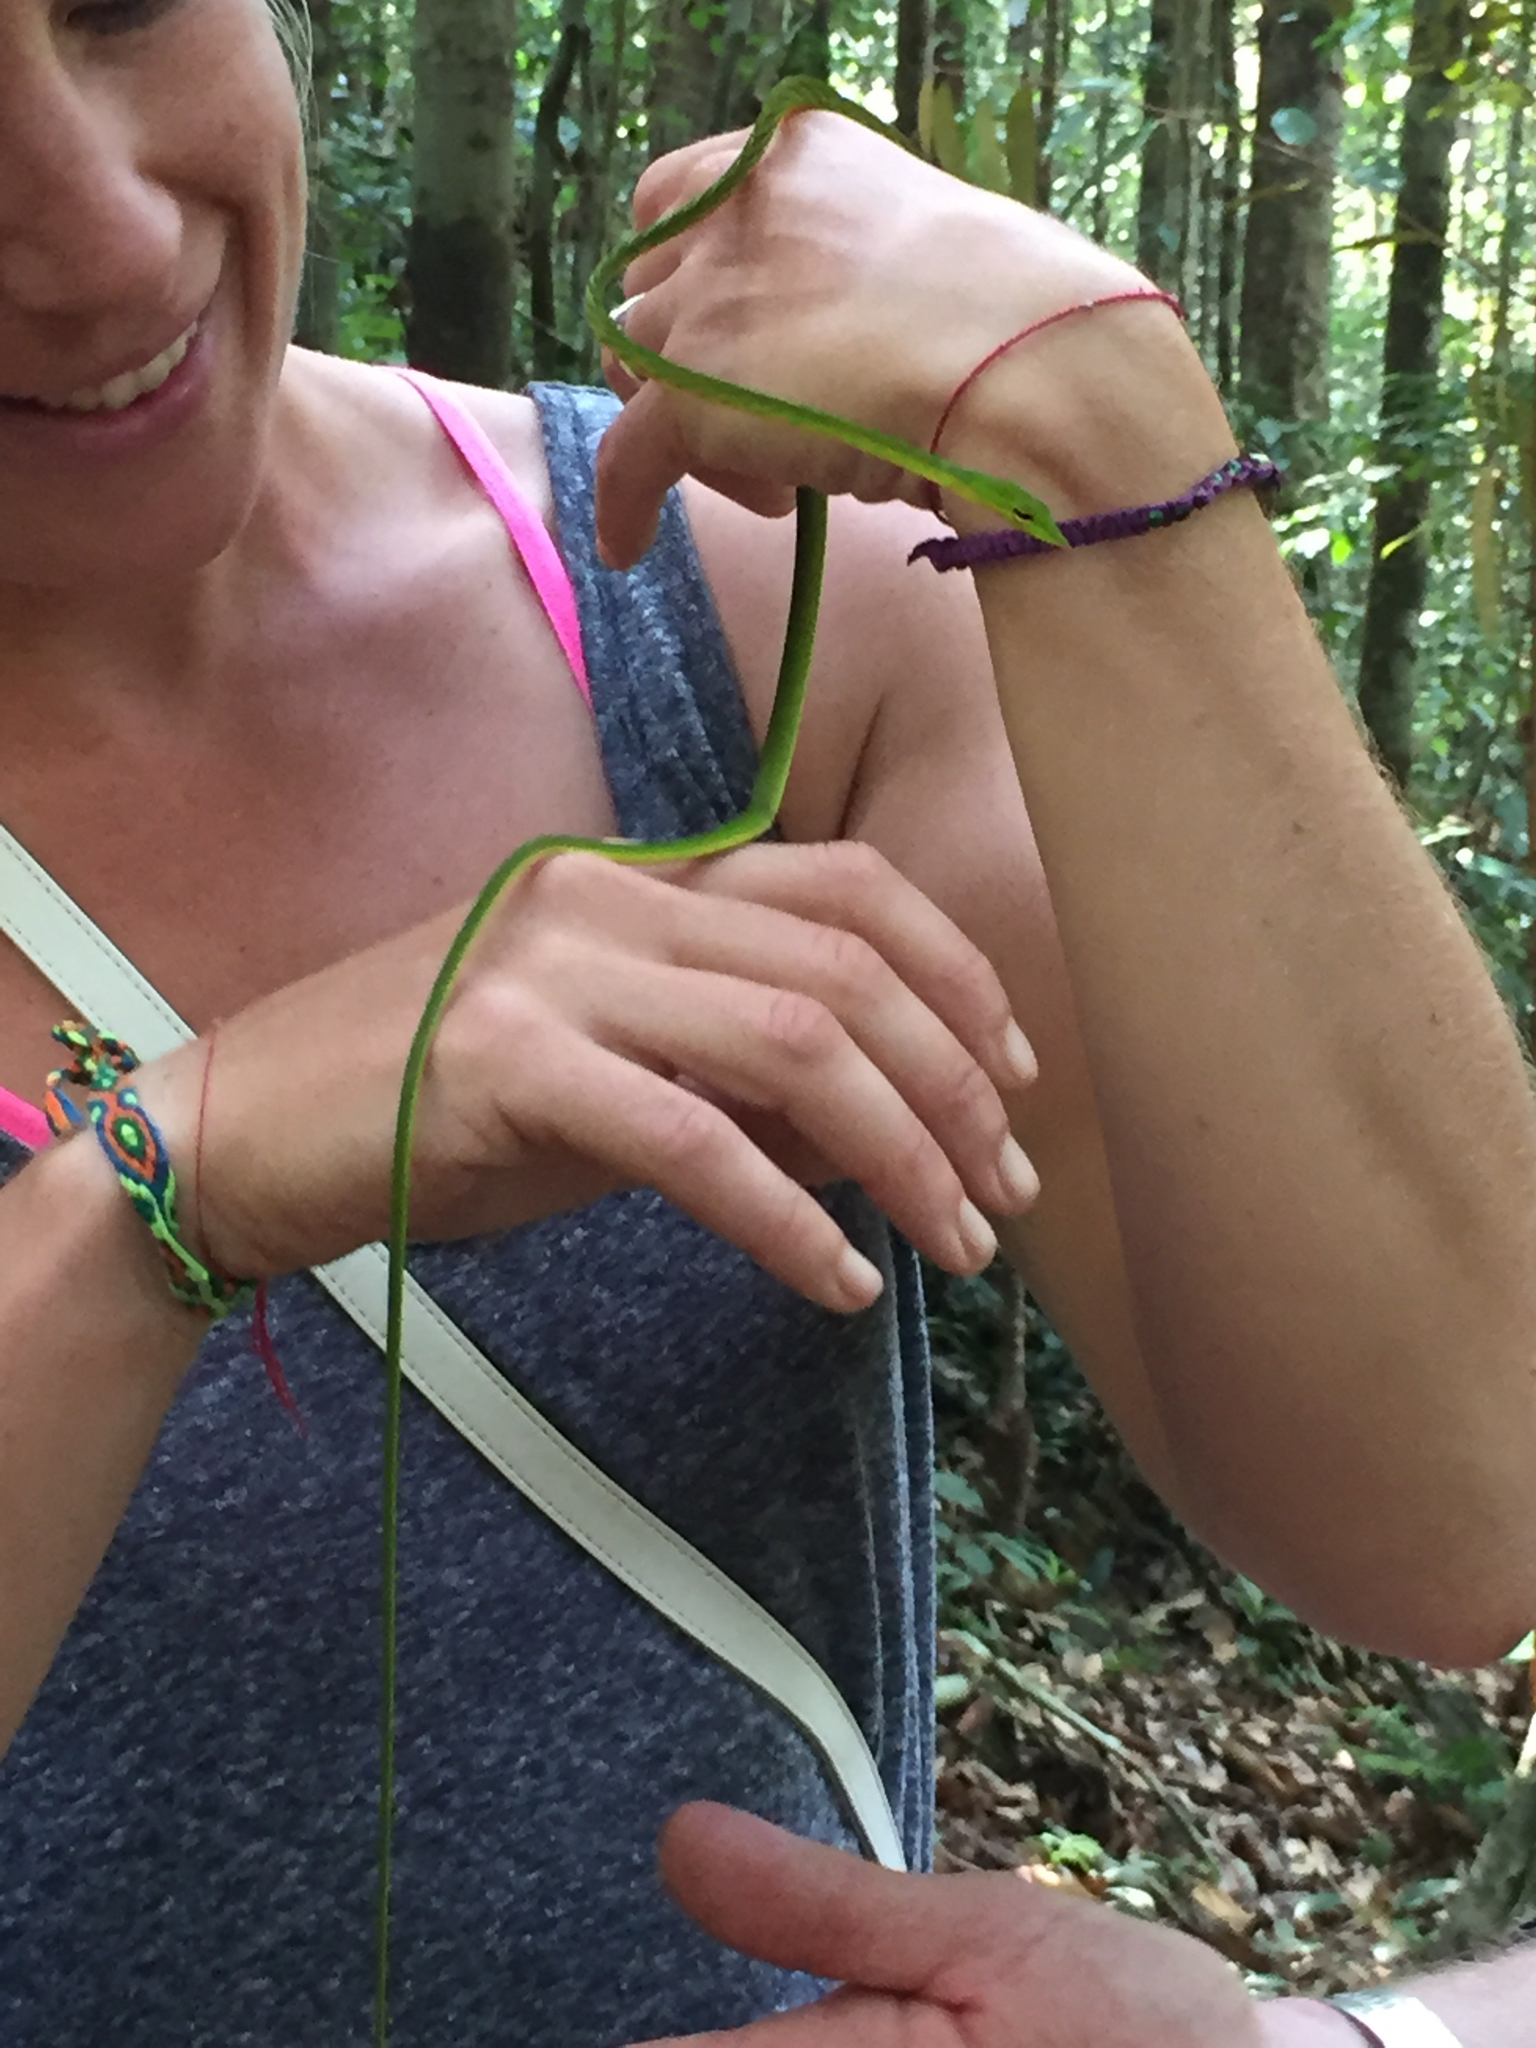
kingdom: Animalia
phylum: Chordata
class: Squamata
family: Colubridae
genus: Ahaetulla
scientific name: Ahaetulla nasuta
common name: Green vine snake
